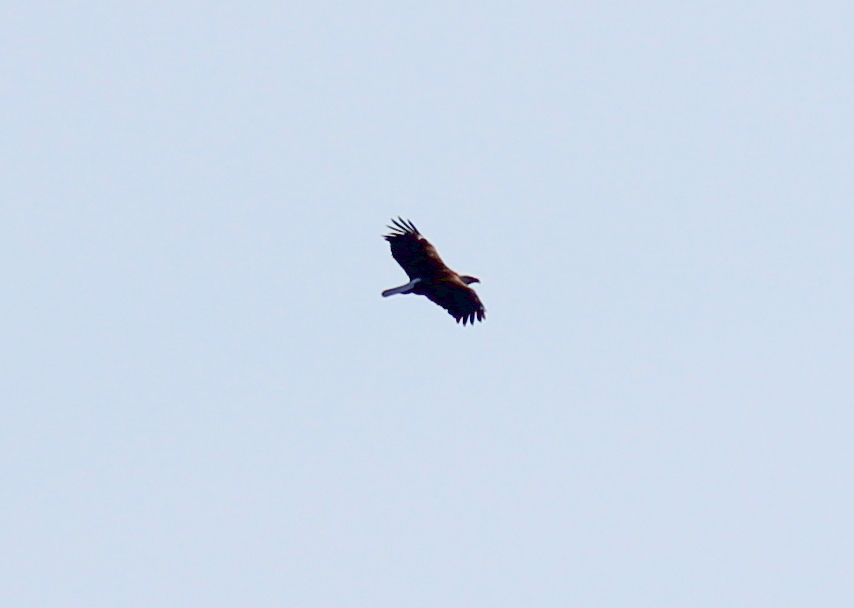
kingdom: Animalia
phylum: Chordata
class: Aves
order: Accipitriformes
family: Accipitridae
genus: Haliaeetus
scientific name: Haliaeetus leucocephalus
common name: Bald eagle
